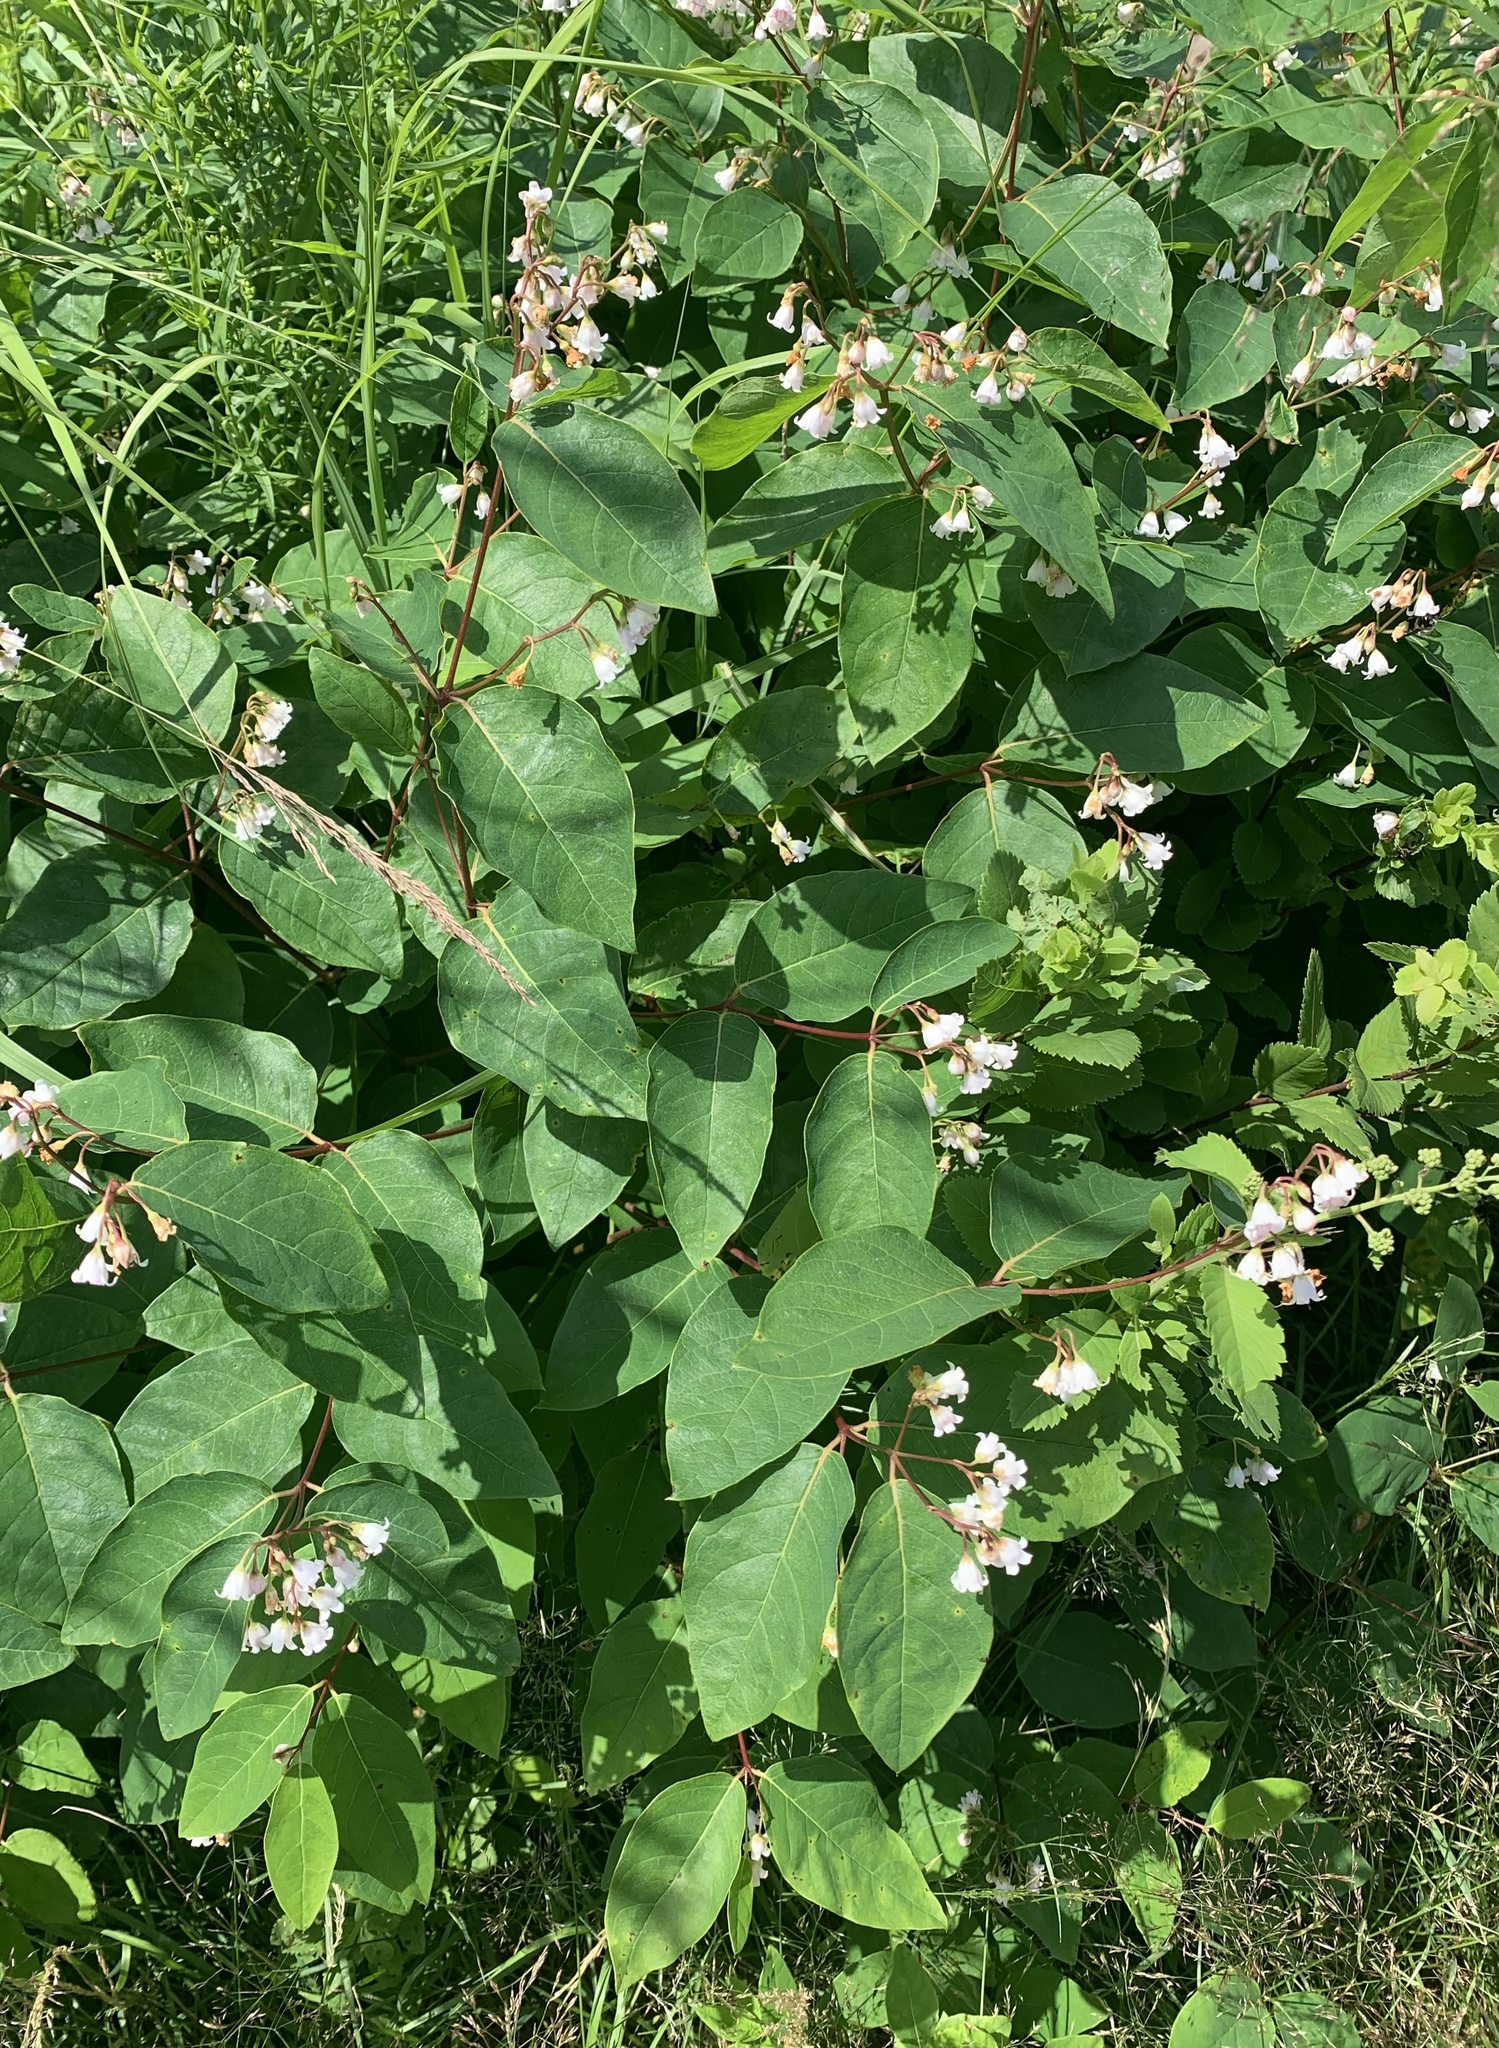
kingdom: Plantae
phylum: Tracheophyta
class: Magnoliopsida
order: Gentianales
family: Apocynaceae
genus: Apocynum
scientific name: Apocynum androsaemifolium
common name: Spreading dogbane
